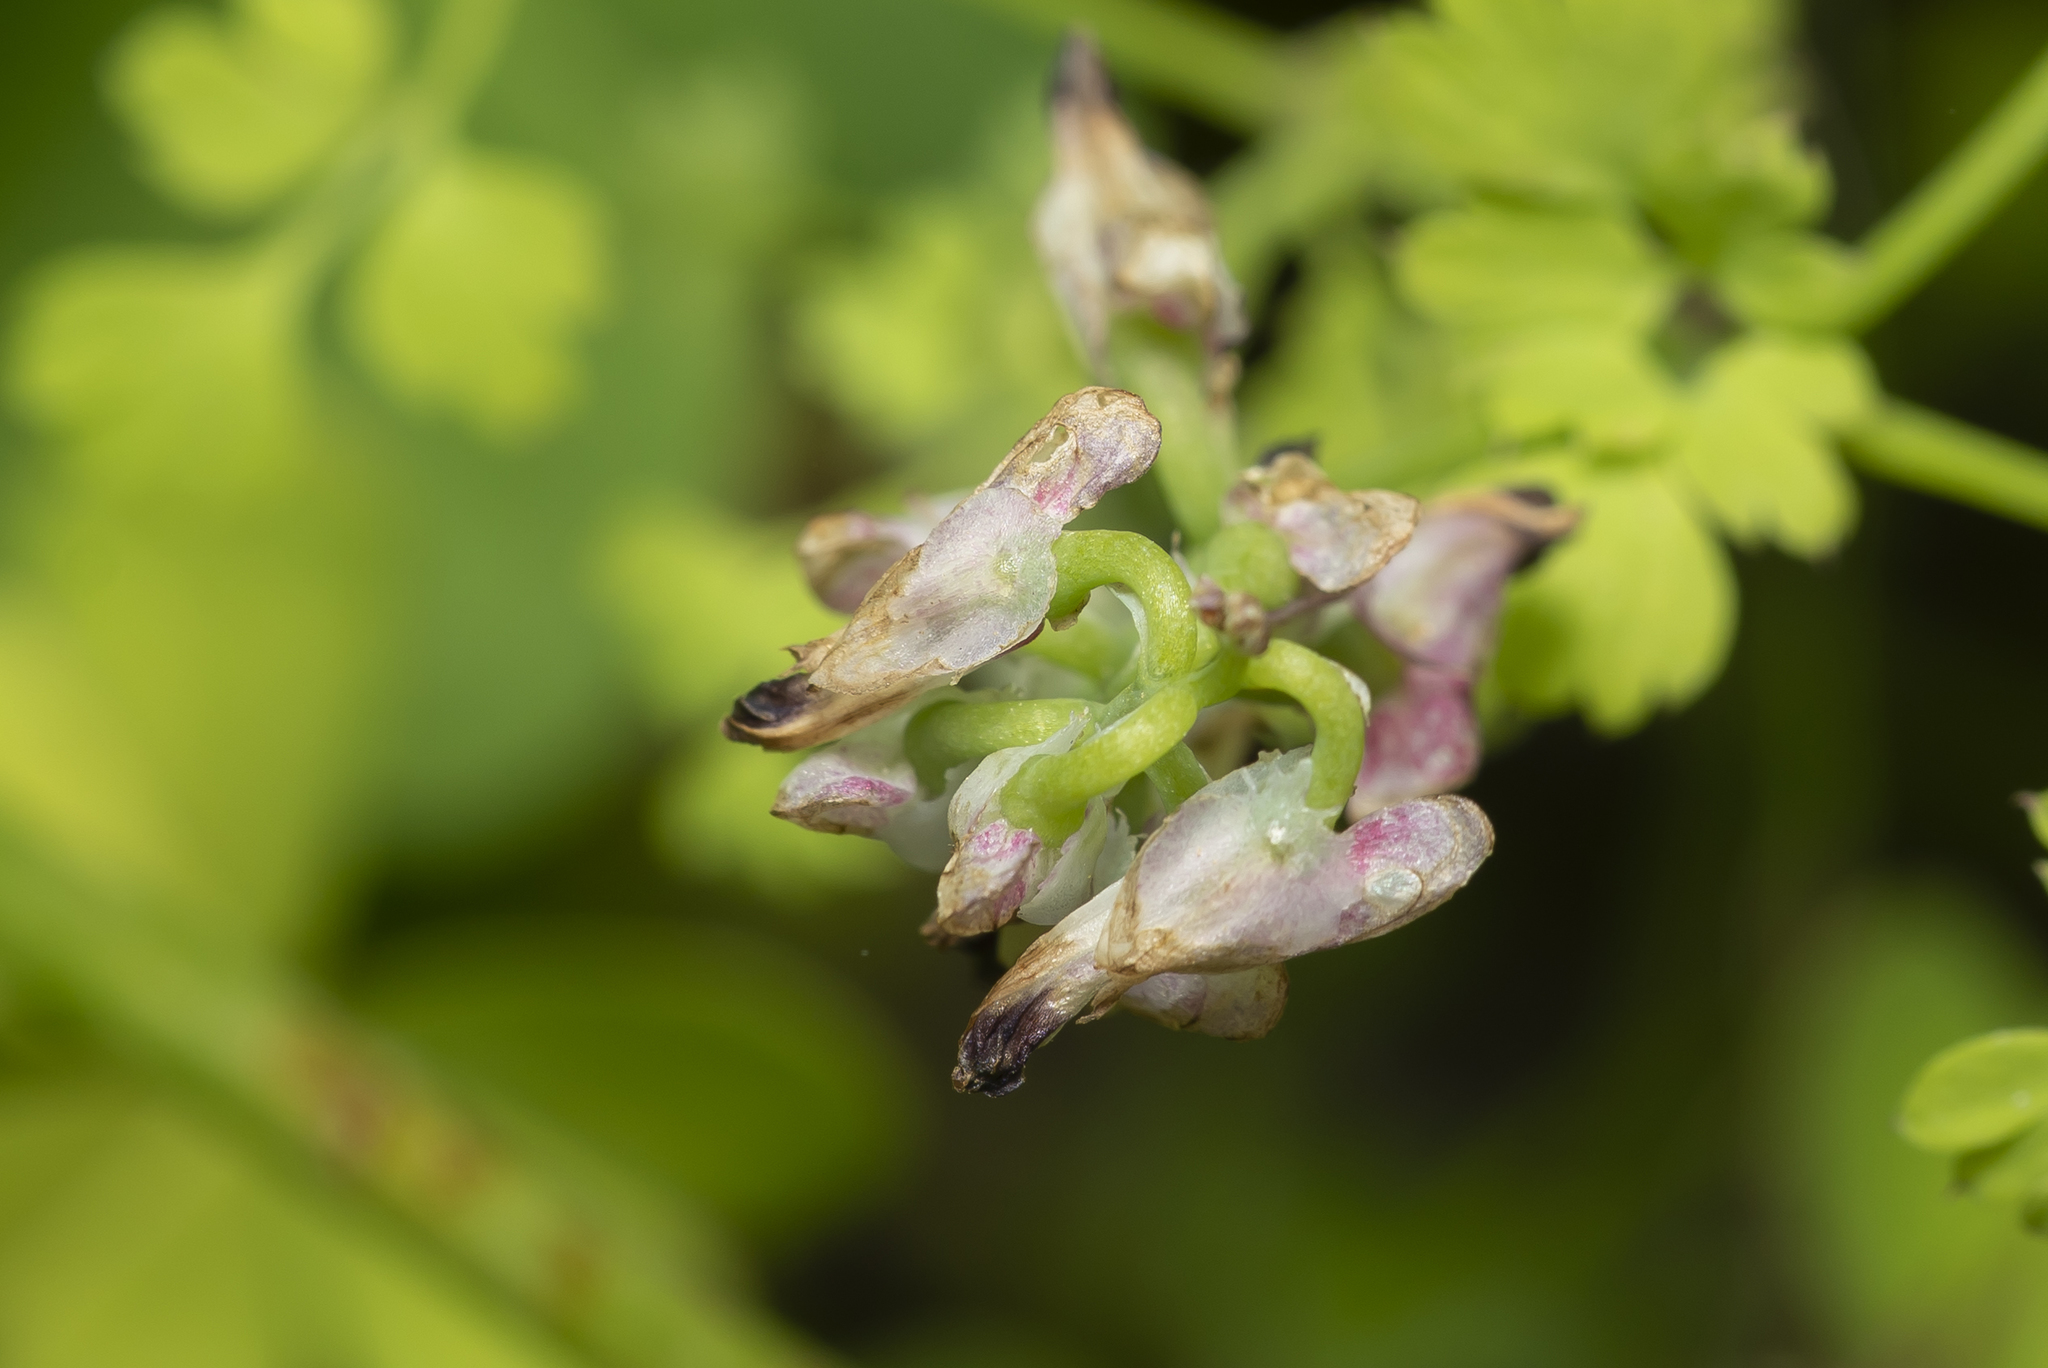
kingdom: Plantae
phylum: Tracheophyta
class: Magnoliopsida
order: Ranunculales
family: Papaveraceae
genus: Fumaria
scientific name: Fumaria capreolata
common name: White ramping-fumitory
